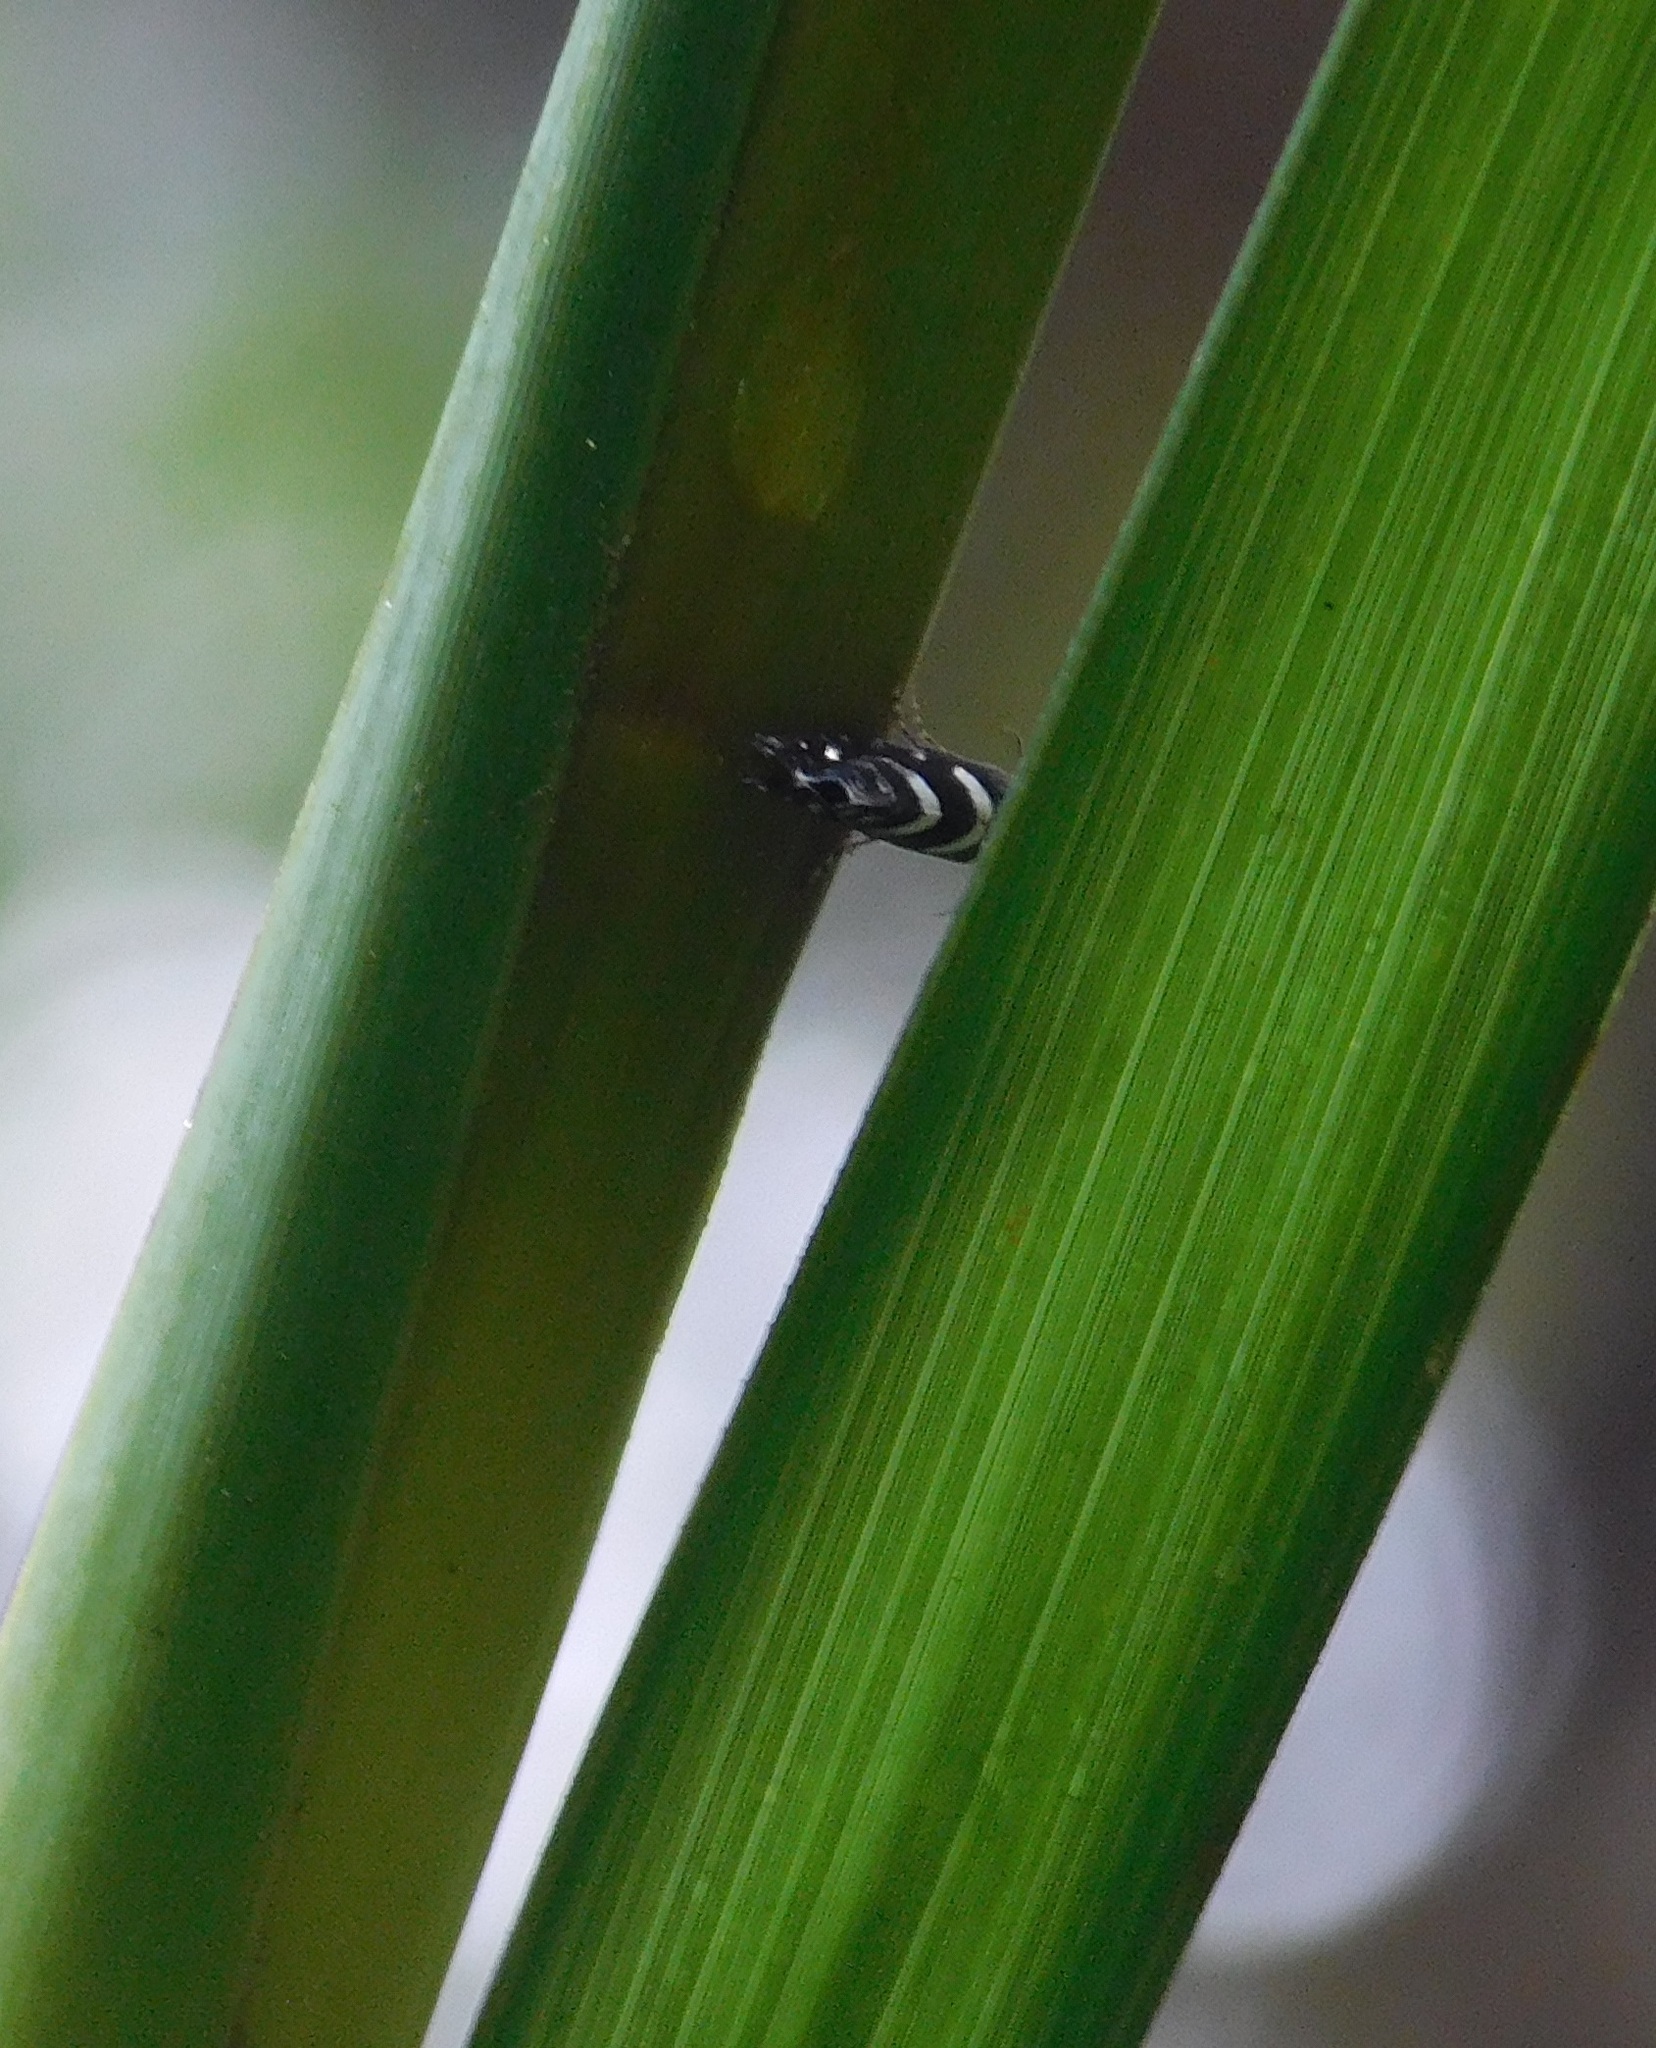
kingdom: Animalia
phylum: Arthropoda
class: Insecta
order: Lepidoptera
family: Glyphipterigidae
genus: Glyphipterix
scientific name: Glyphipterix dichorda
